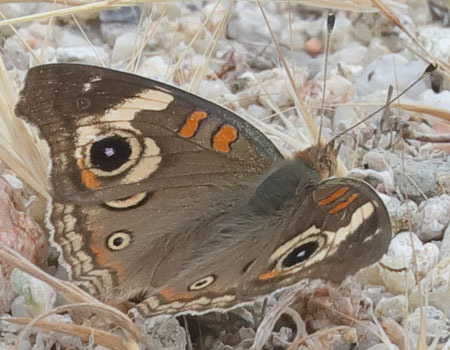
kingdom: Animalia
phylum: Arthropoda
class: Insecta
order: Lepidoptera
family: Nymphalidae
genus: Junonia
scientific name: Junonia grisea
